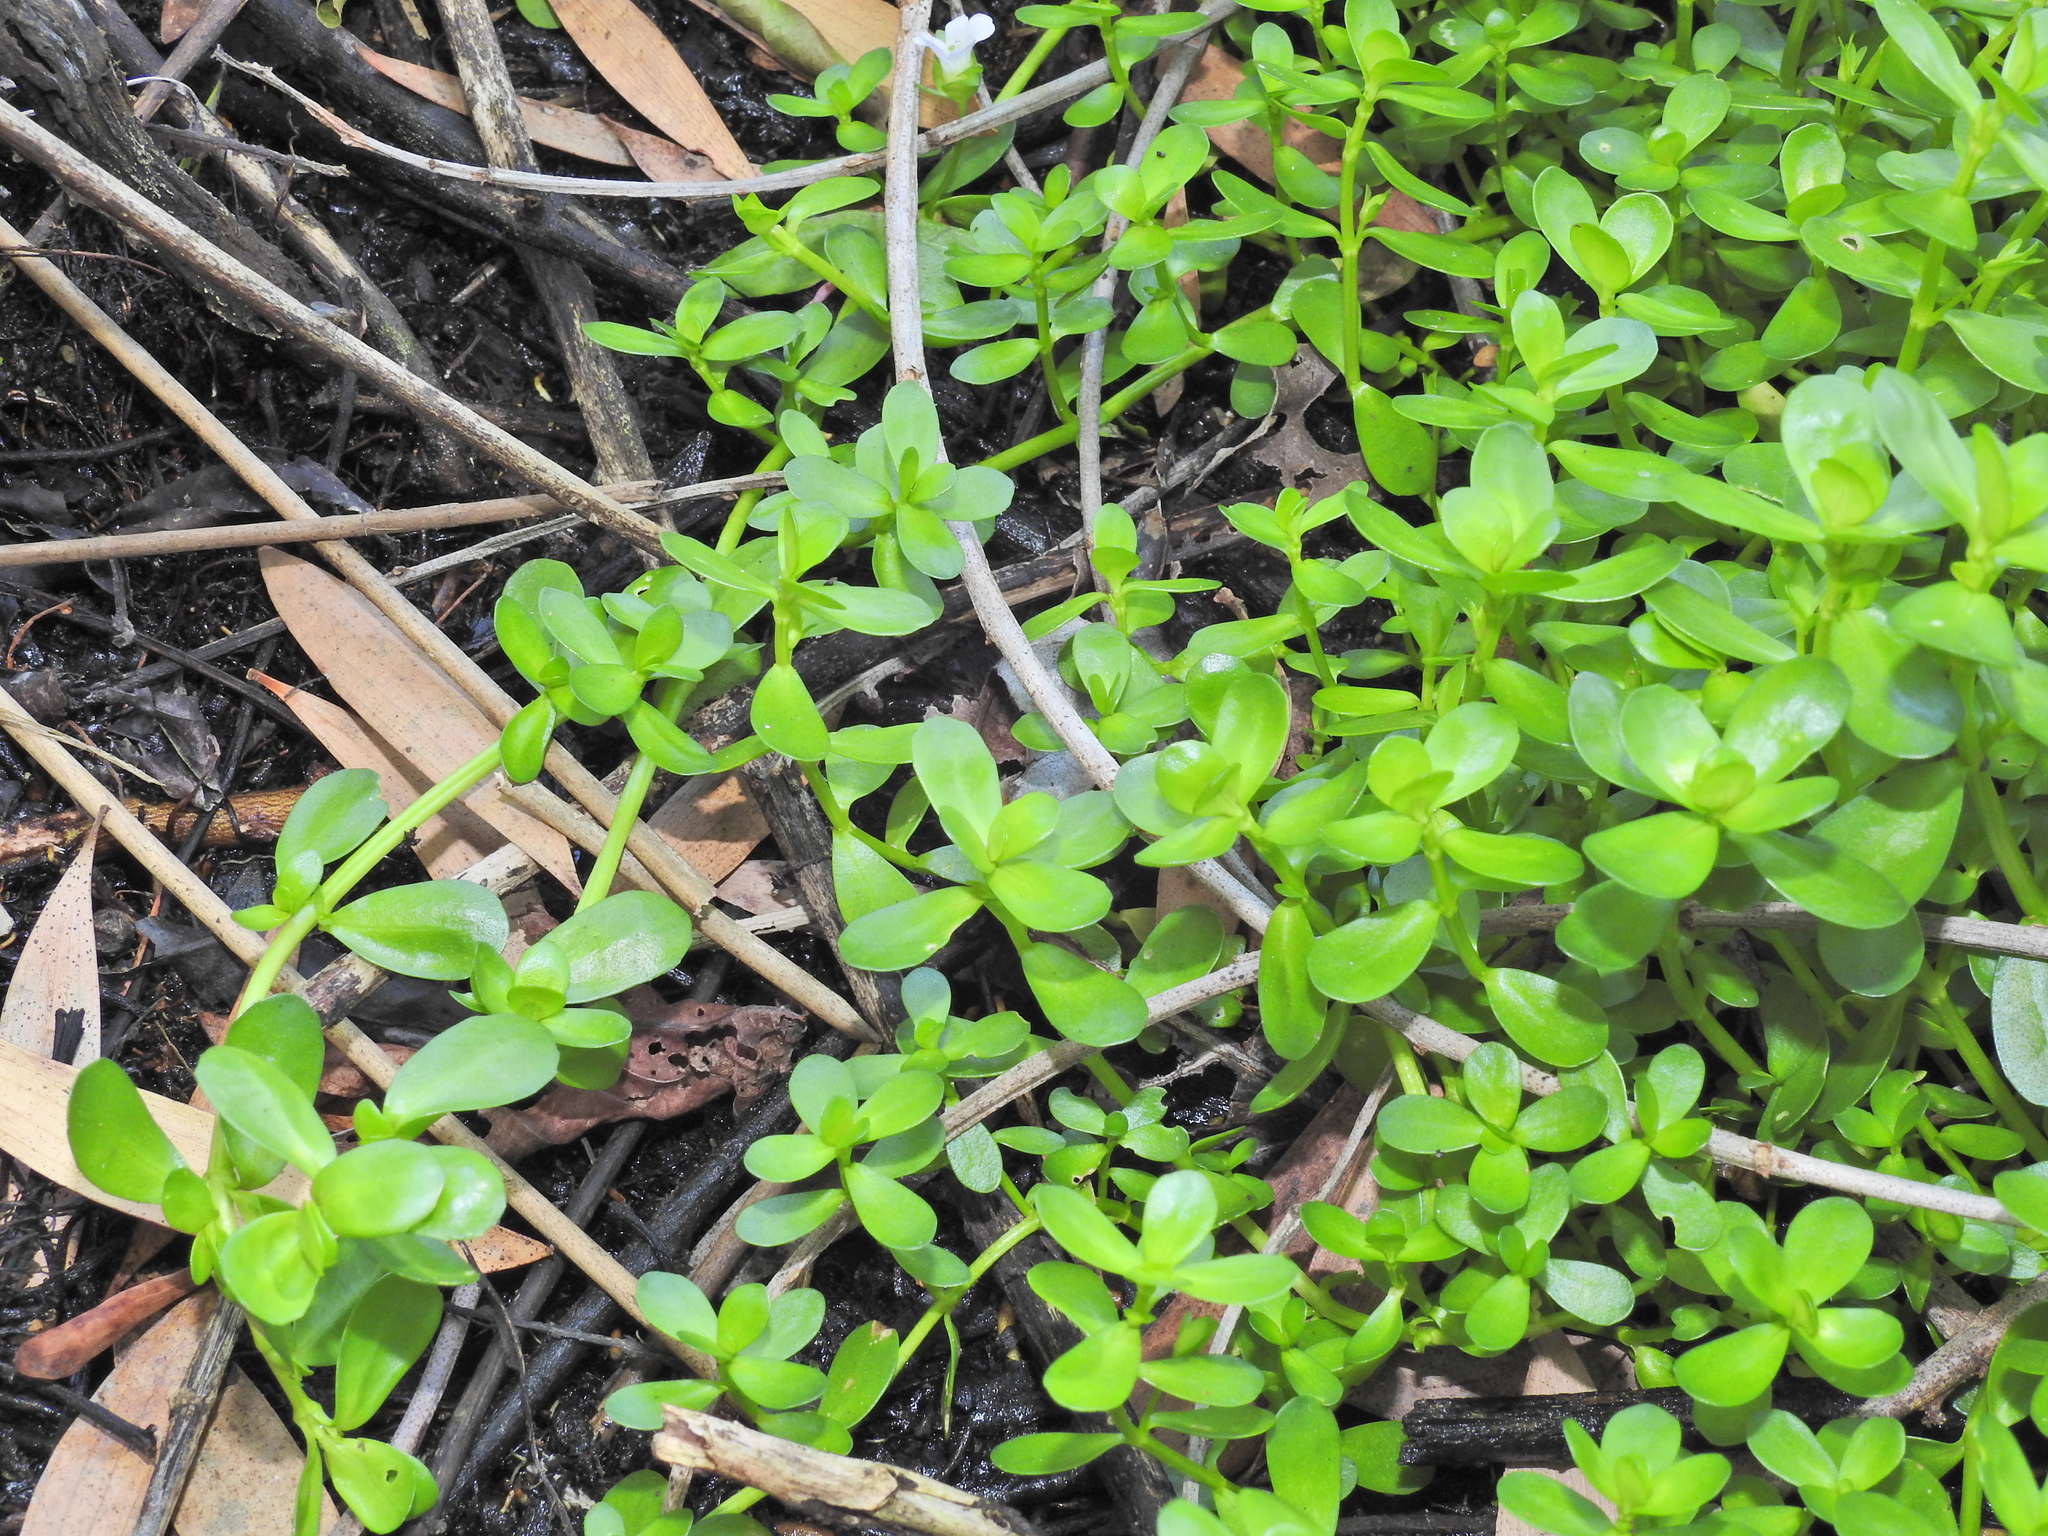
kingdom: Plantae
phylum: Tracheophyta
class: Magnoliopsida
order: Lamiales
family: Plantaginaceae
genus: Bacopa
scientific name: Bacopa monnieri
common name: Indian-pennywort
